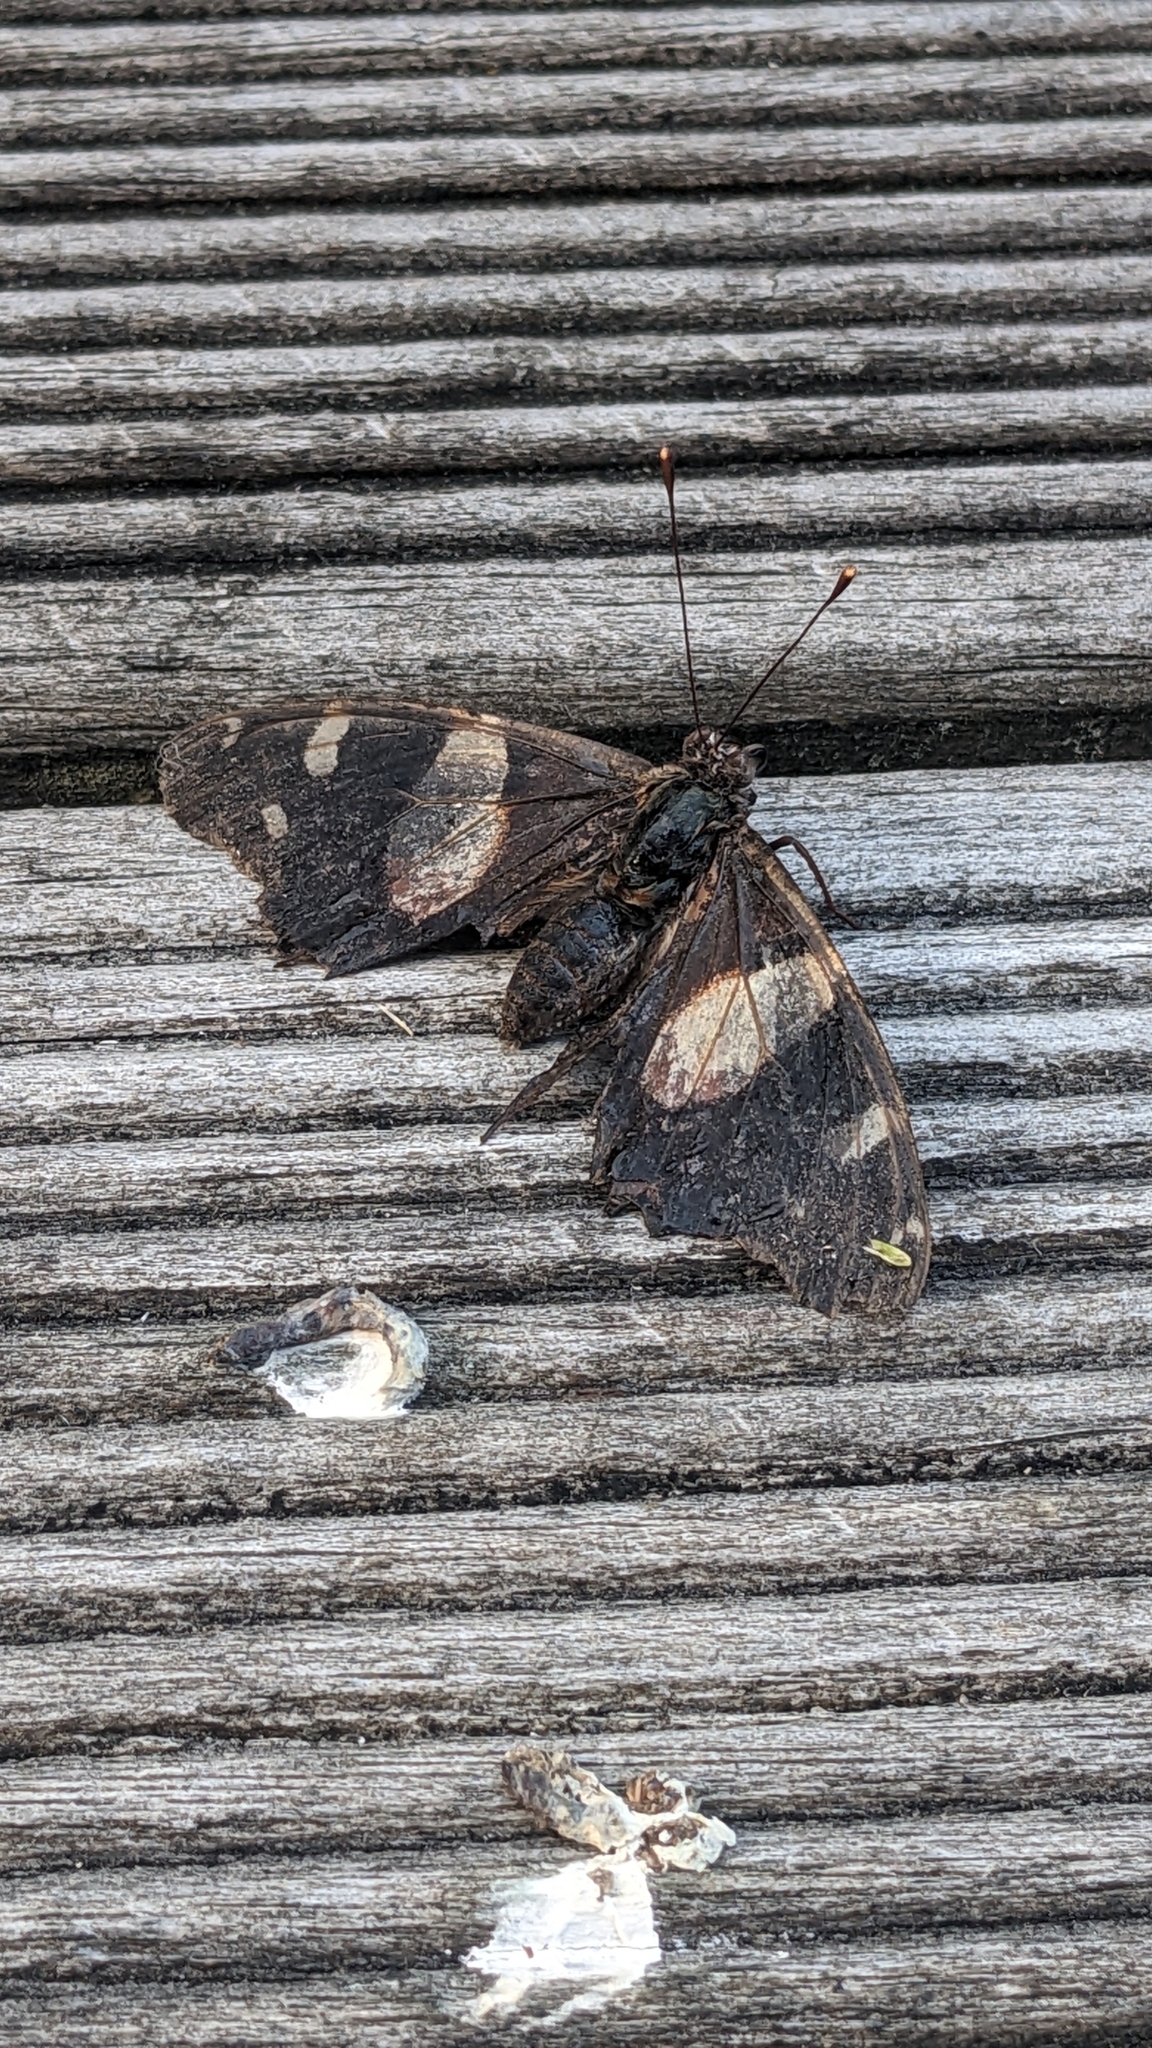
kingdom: Animalia
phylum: Arthropoda
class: Insecta
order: Lepidoptera
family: Nymphalidae
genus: Vanessa
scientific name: Vanessa itea
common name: Yellow admiral
